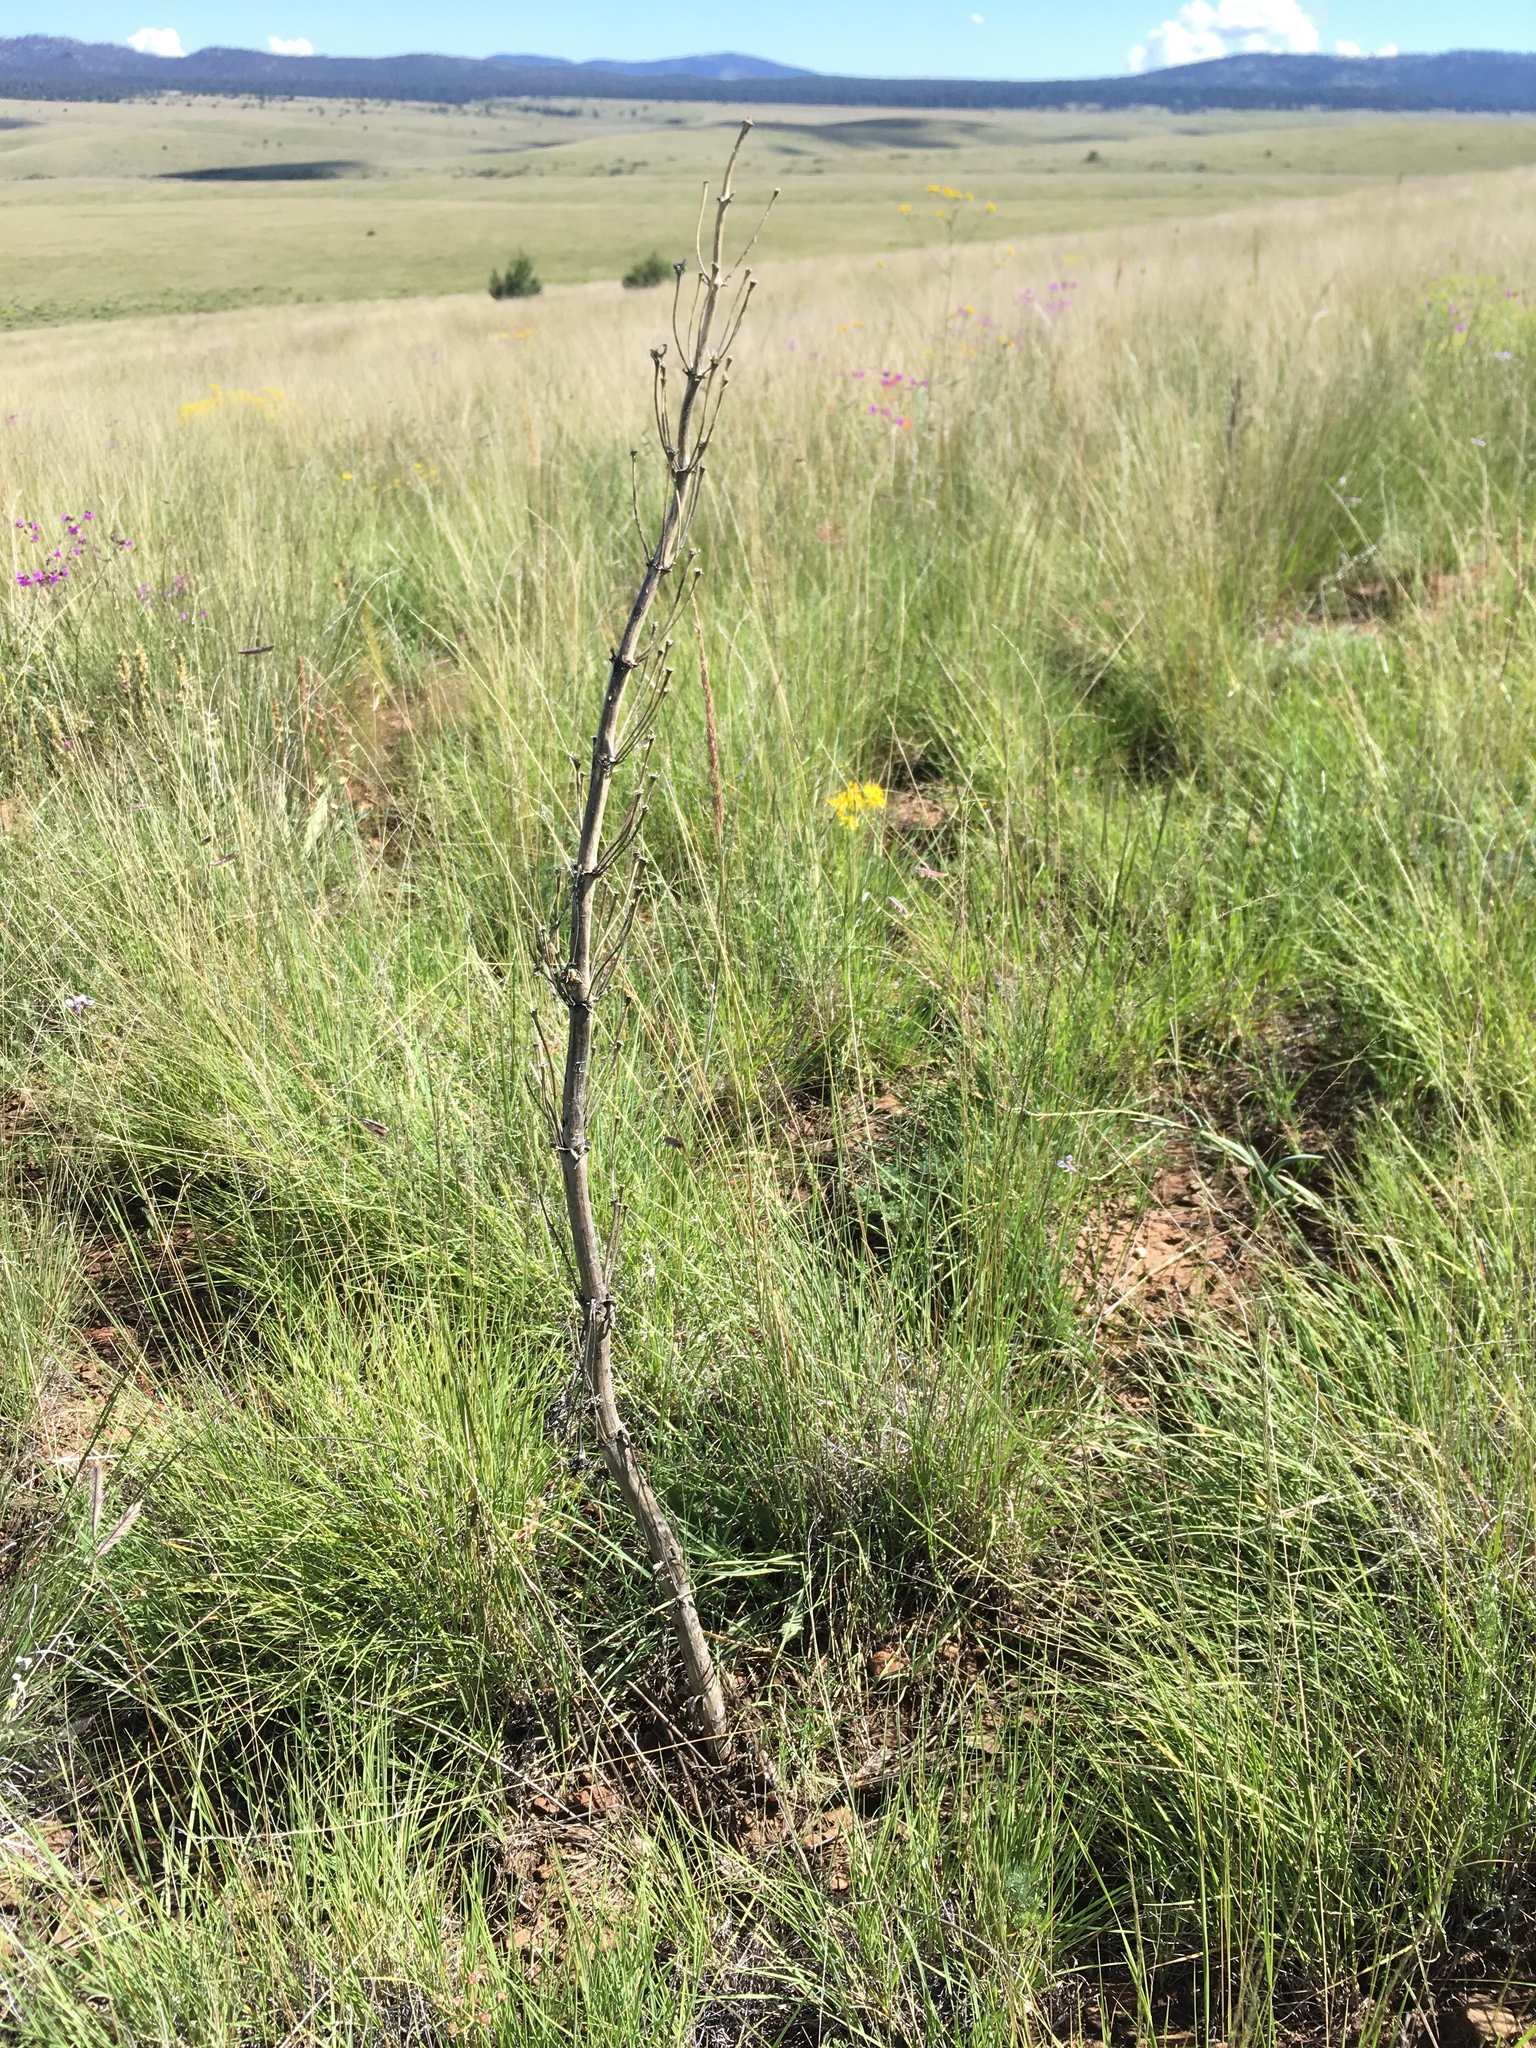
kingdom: Plantae
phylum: Tracheophyta
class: Magnoliopsida
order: Gentianales
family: Gentianaceae
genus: Frasera
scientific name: Frasera speciosa
